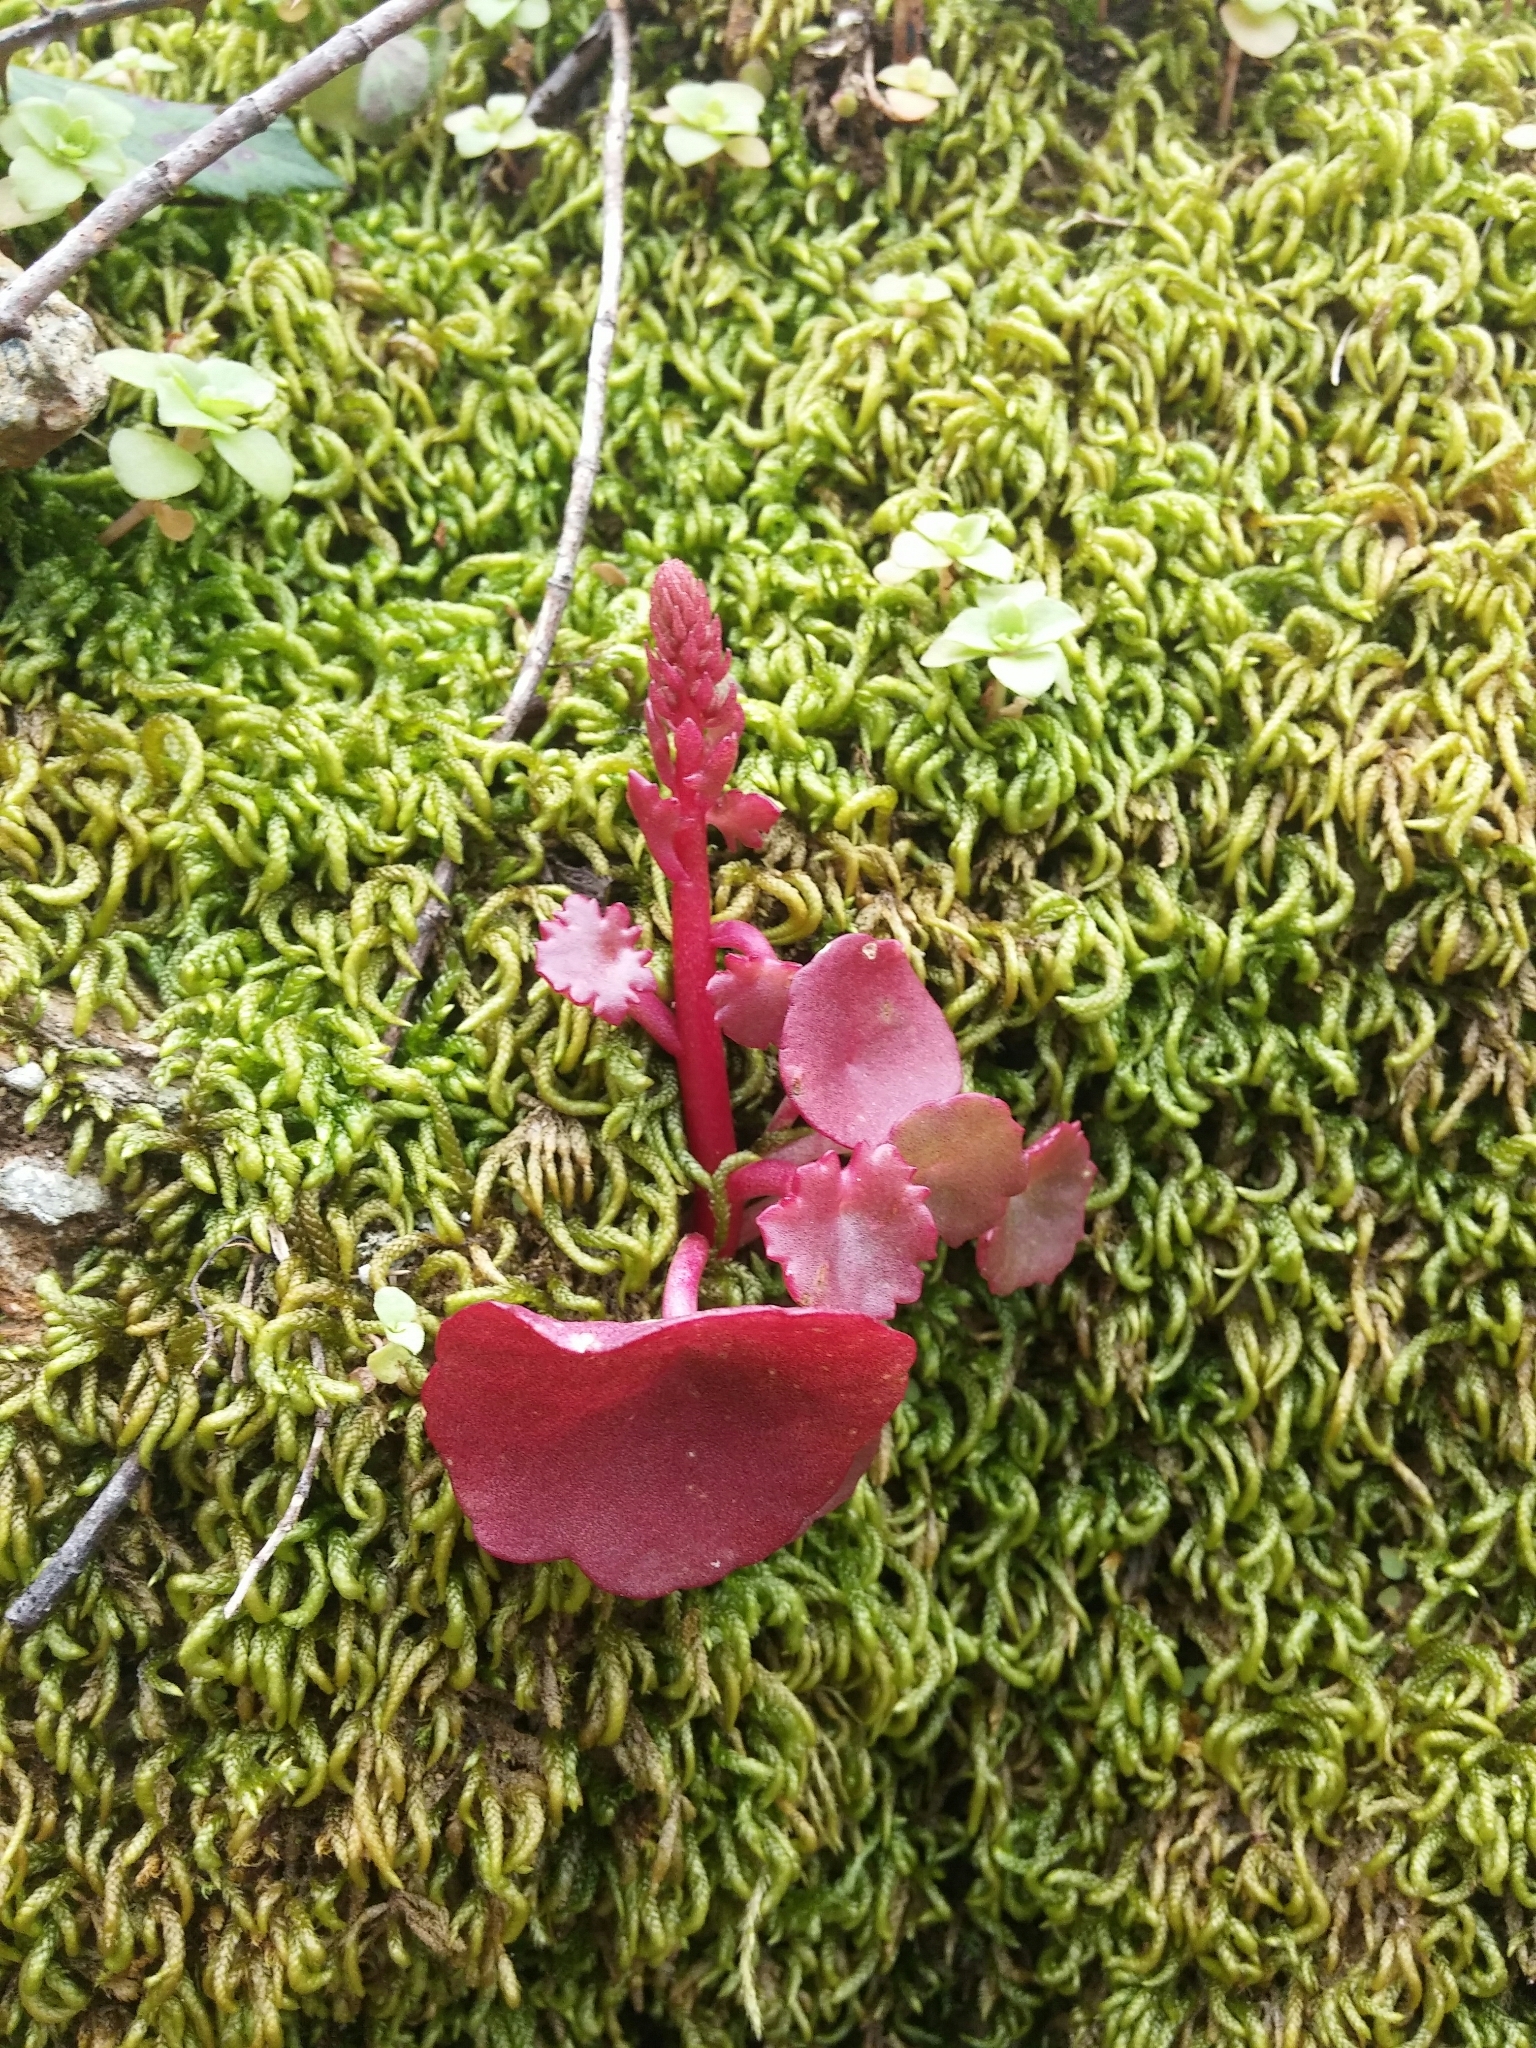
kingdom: Plantae
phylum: Tracheophyta
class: Magnoliopsida
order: Saxifragales
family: Crassulaceae
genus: Umbilicus
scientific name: Umbilicus rupestris
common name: Navelwort
